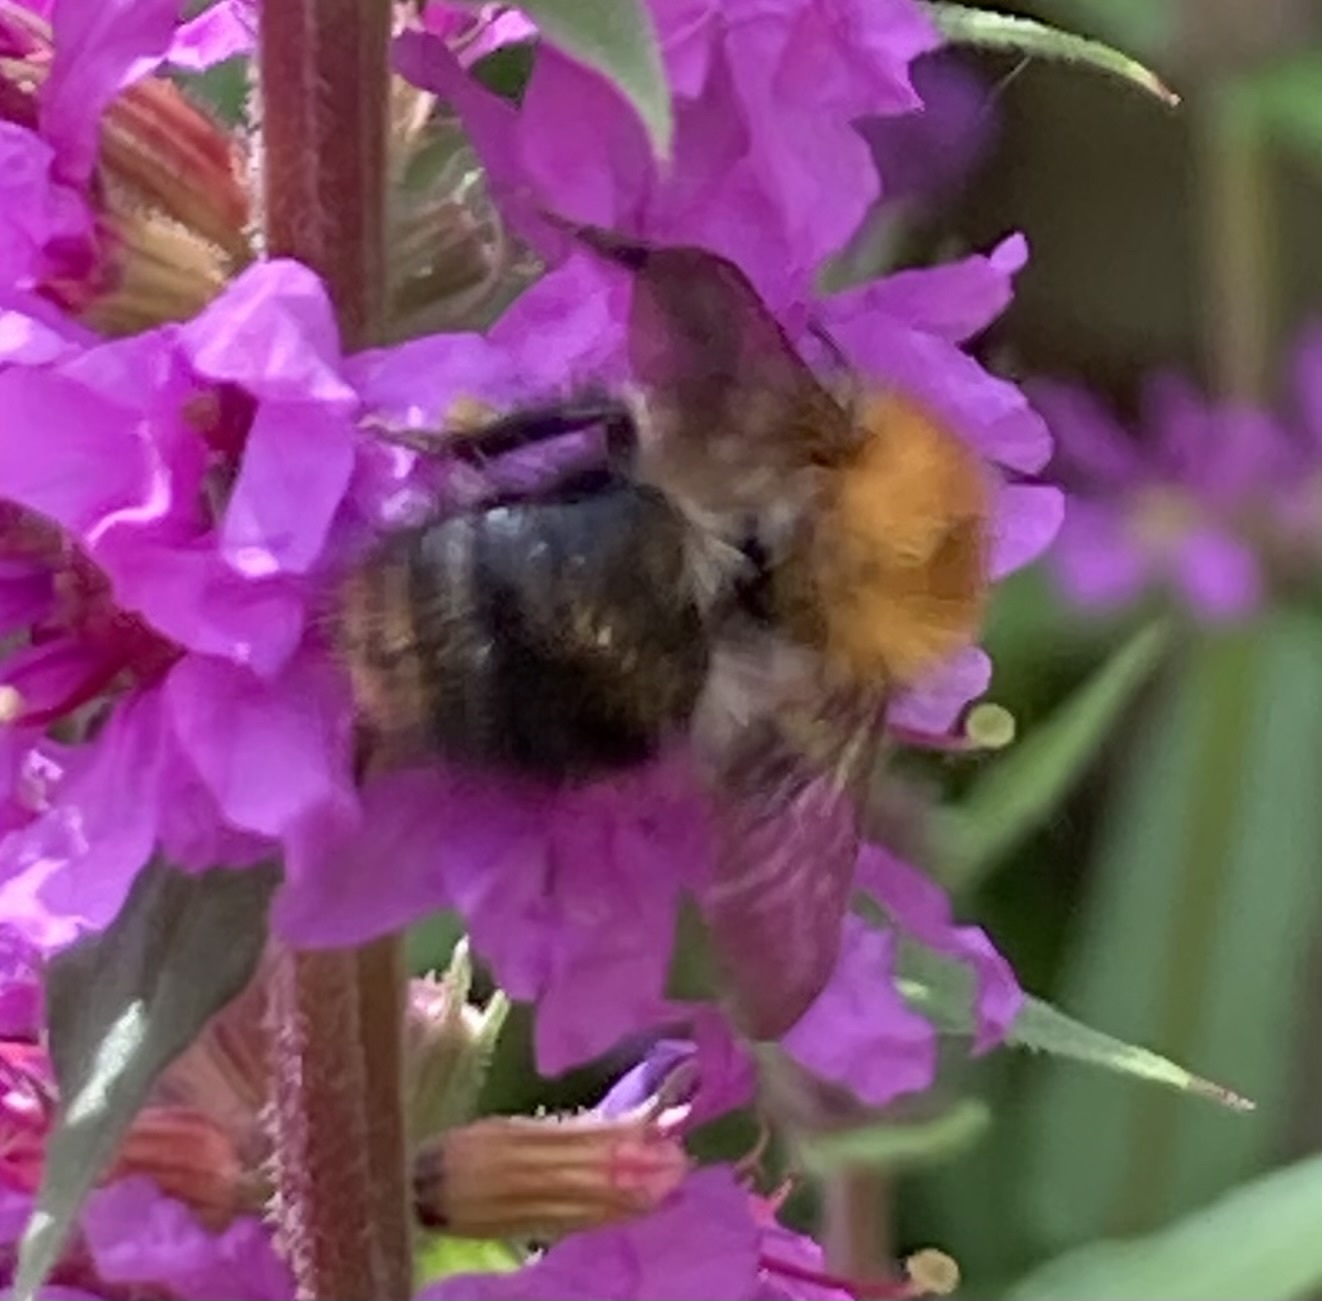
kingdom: Animalia
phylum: Arthropoda
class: Insecta
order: Hymenoptera
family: Apidae
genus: Bombus
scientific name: Bombus pascuorum
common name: Common carder bee
